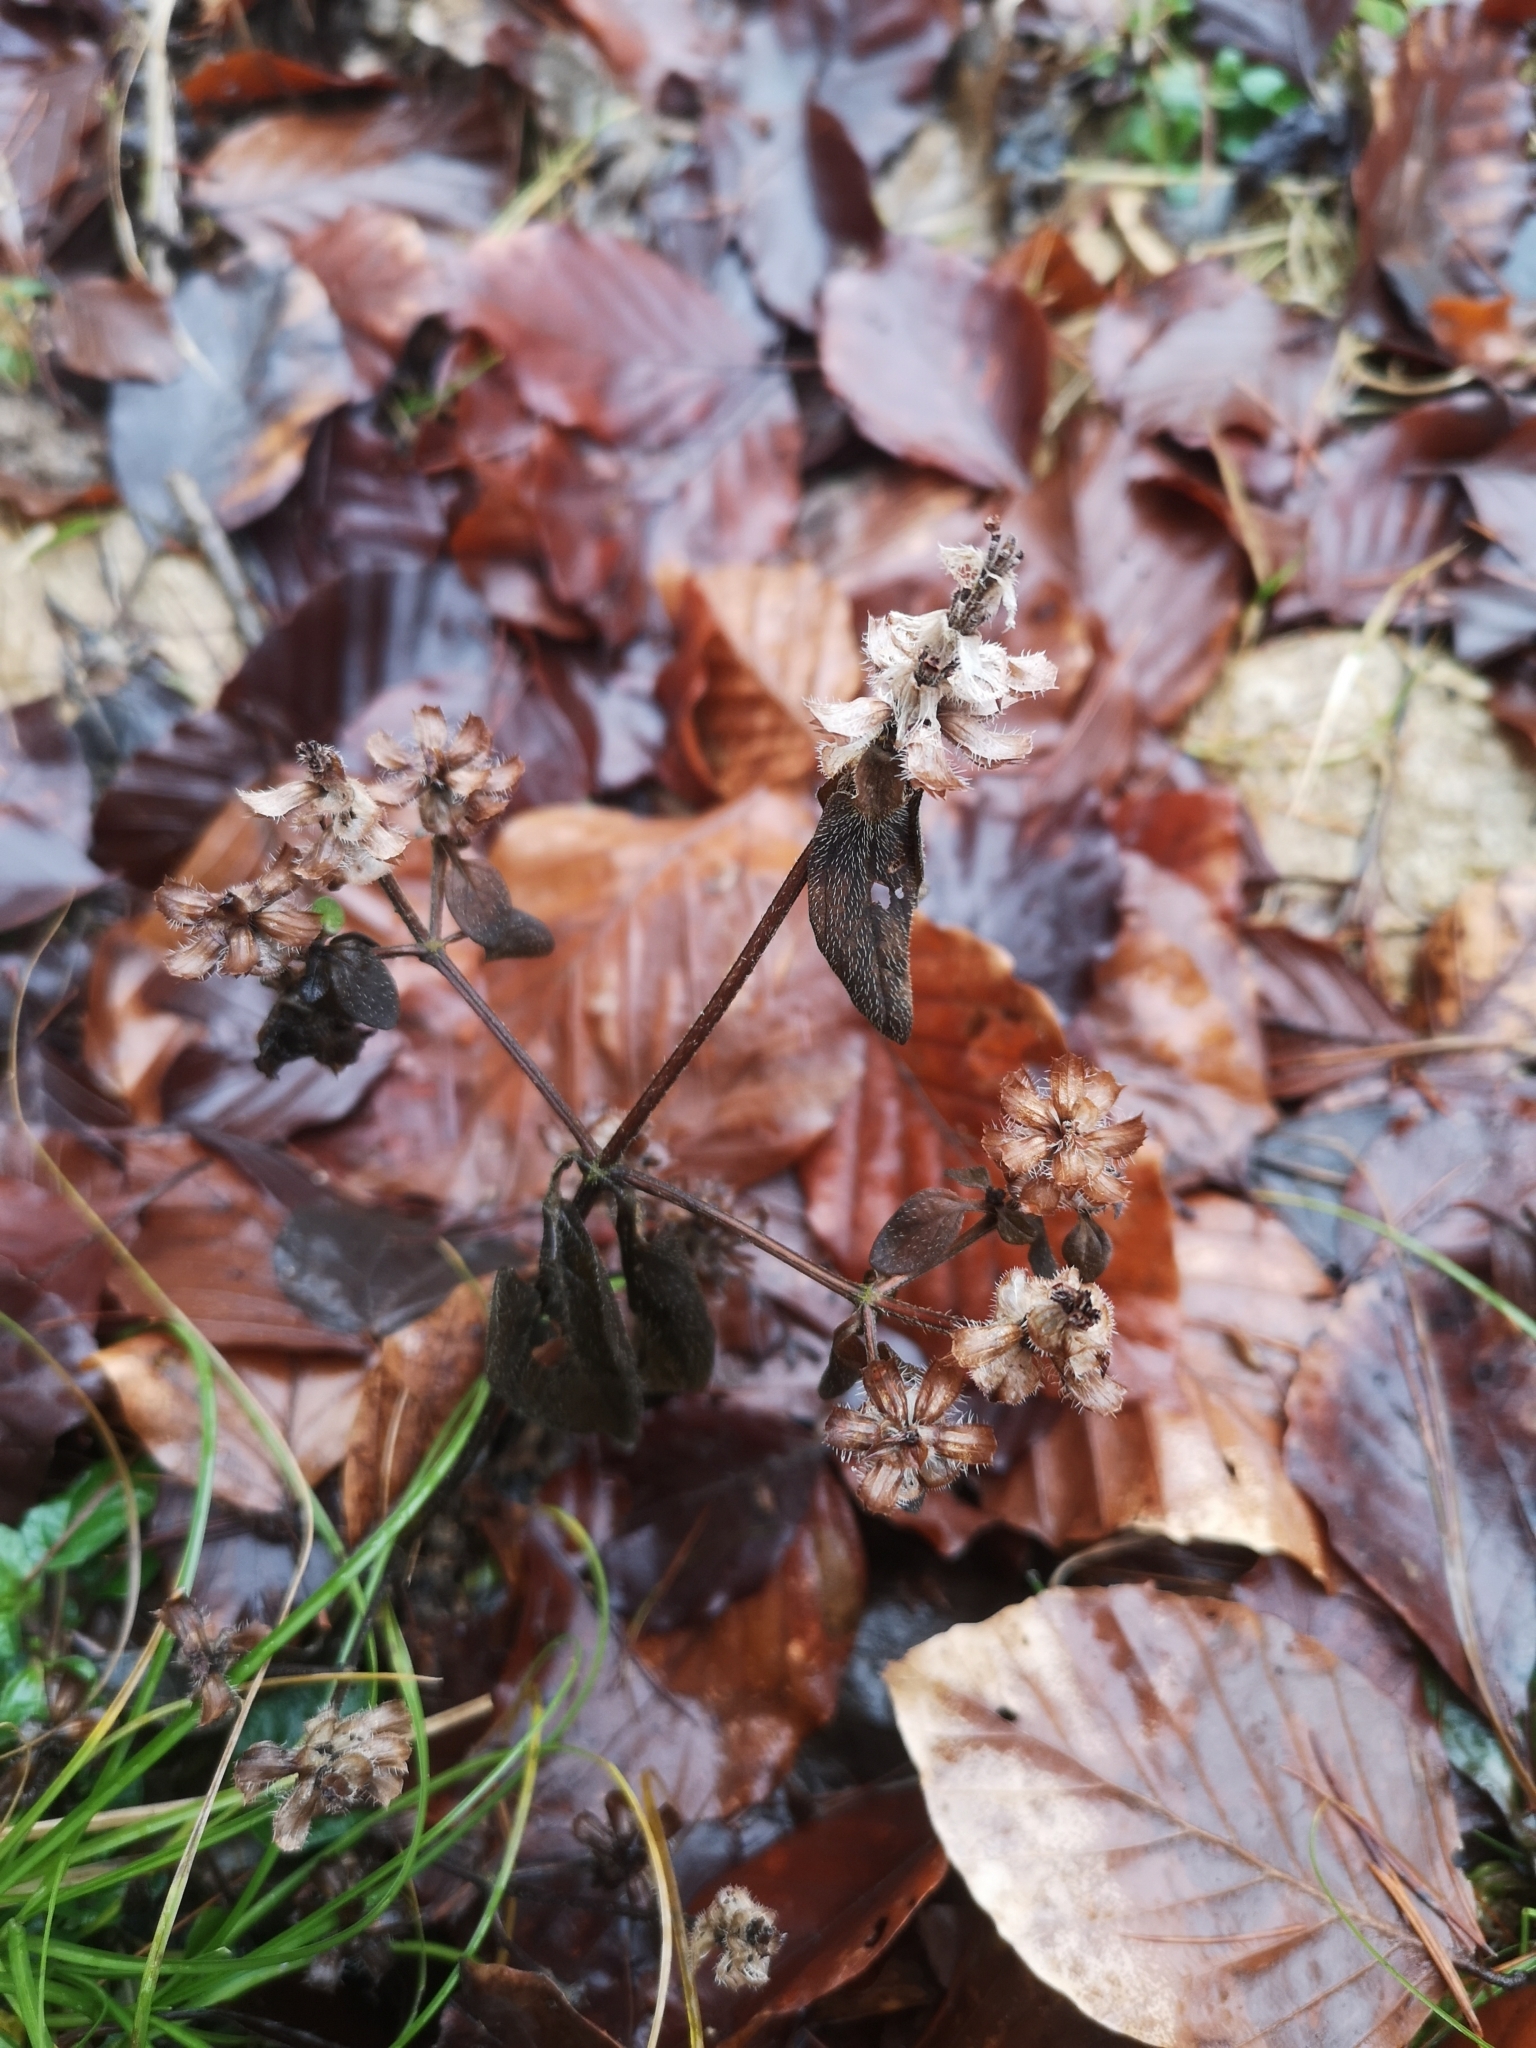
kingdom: Plantae
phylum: Tracheophyta
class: Magnoliopsida
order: Lamiales
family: Lamiaceae
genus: Prunella
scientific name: Prunella vulgaris
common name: Heal-all
